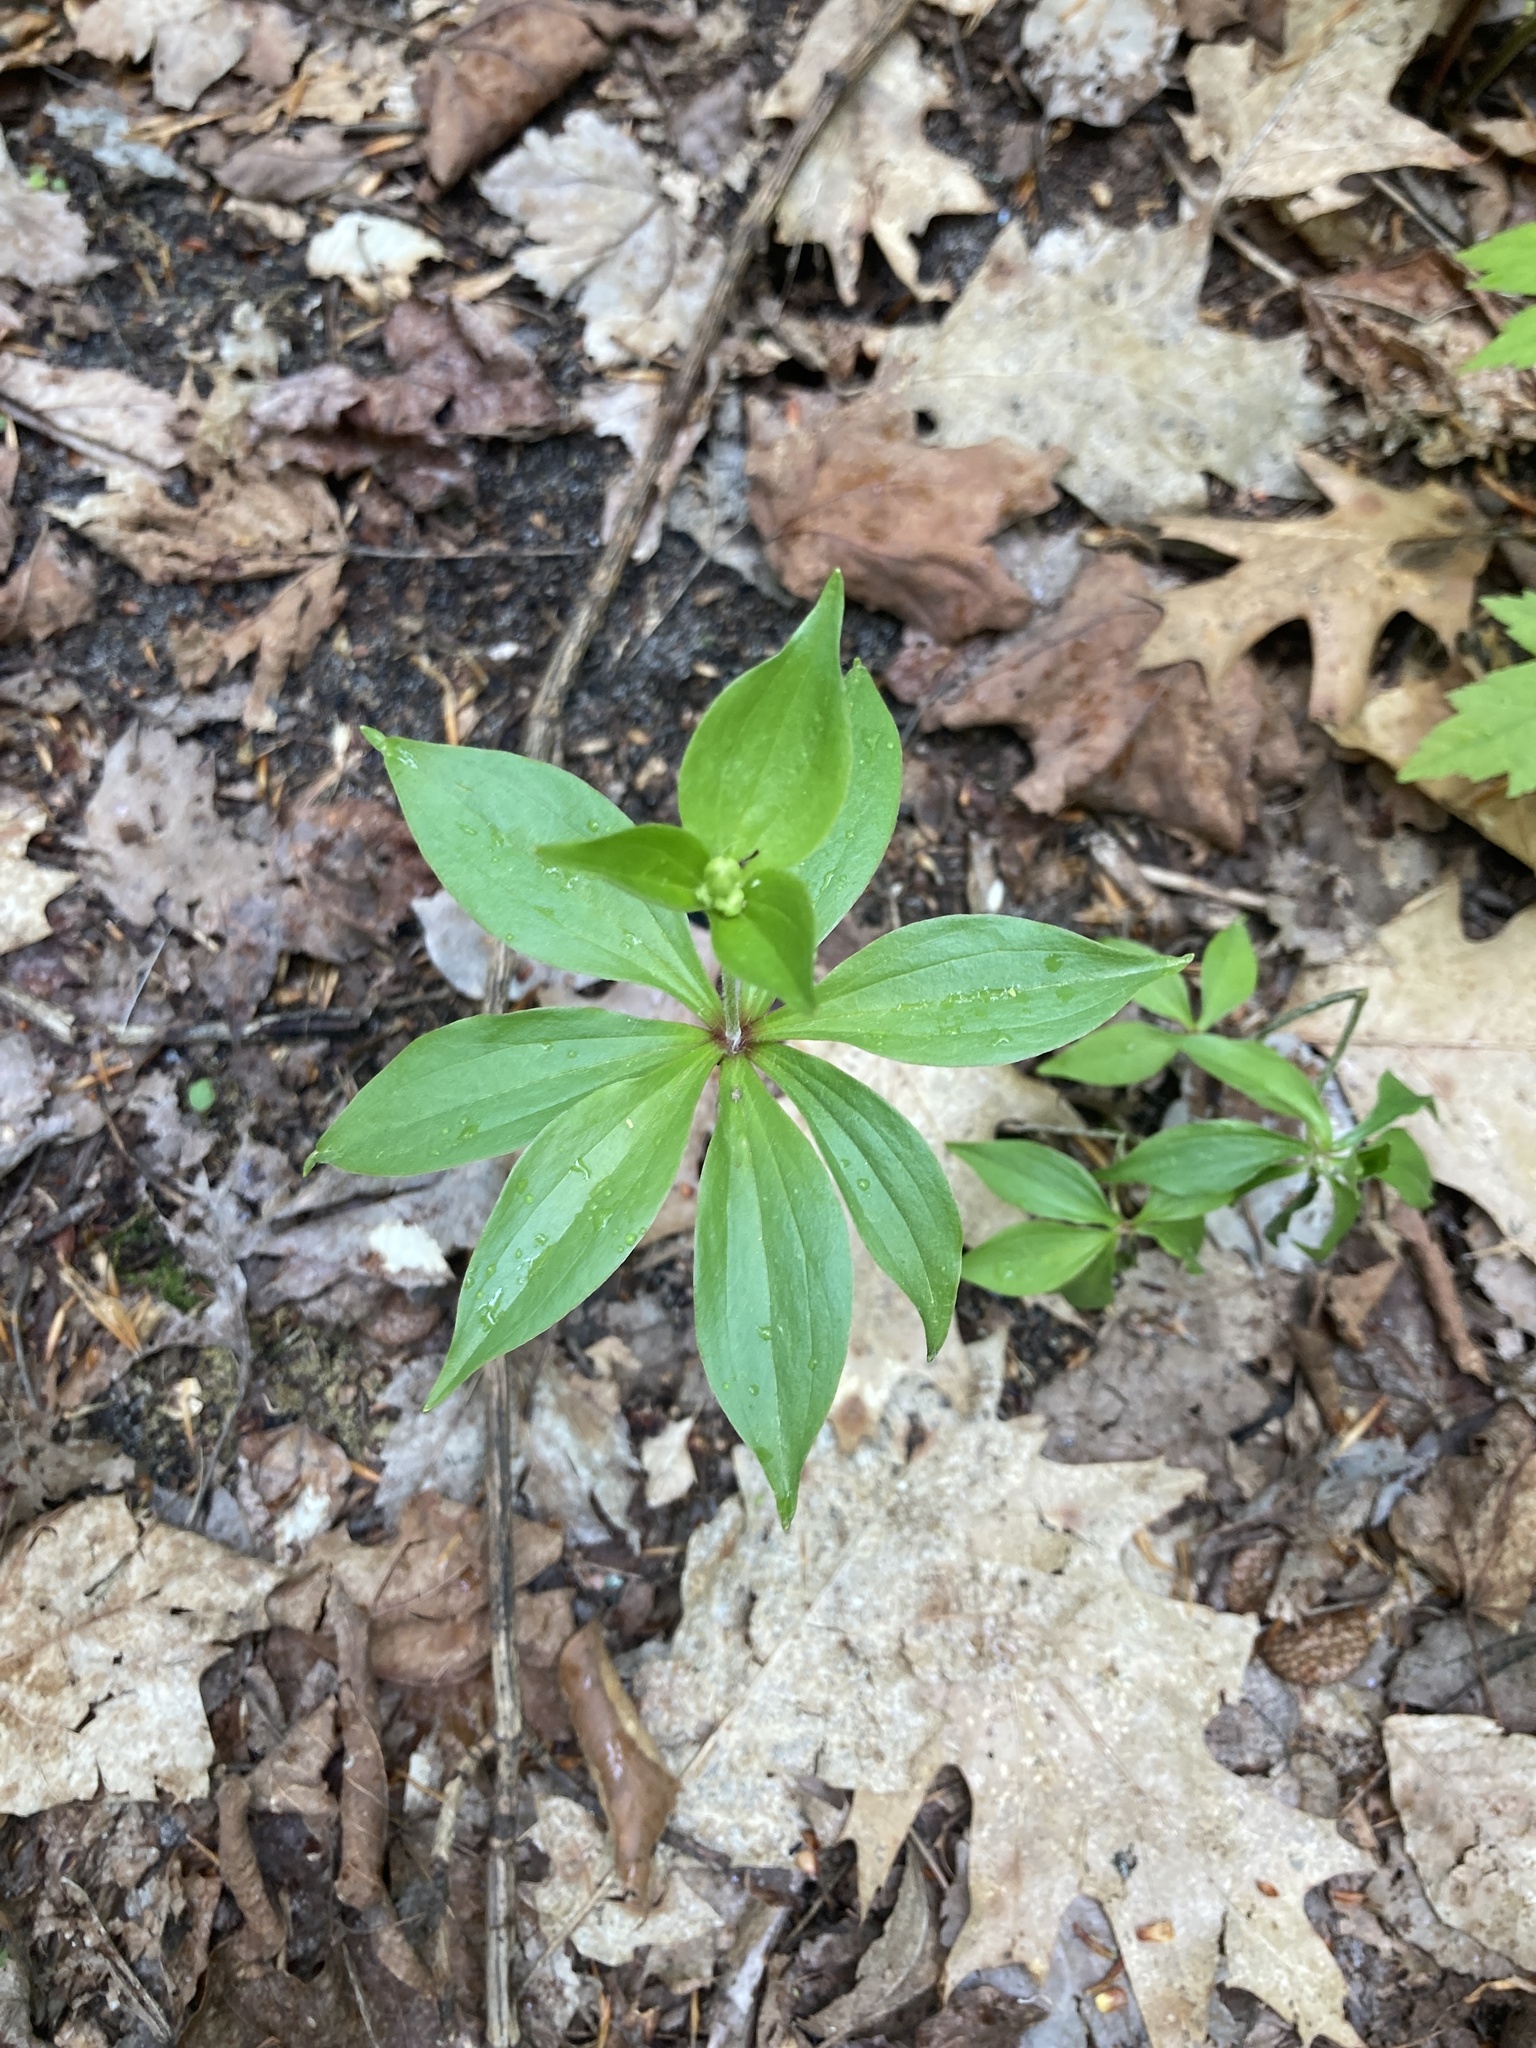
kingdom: Plantae
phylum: Tracheophyta
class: Liliopsida
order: Liliales
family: Liliaceae
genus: Medeola
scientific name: Medeola virginiana
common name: Indian cucumber-root
